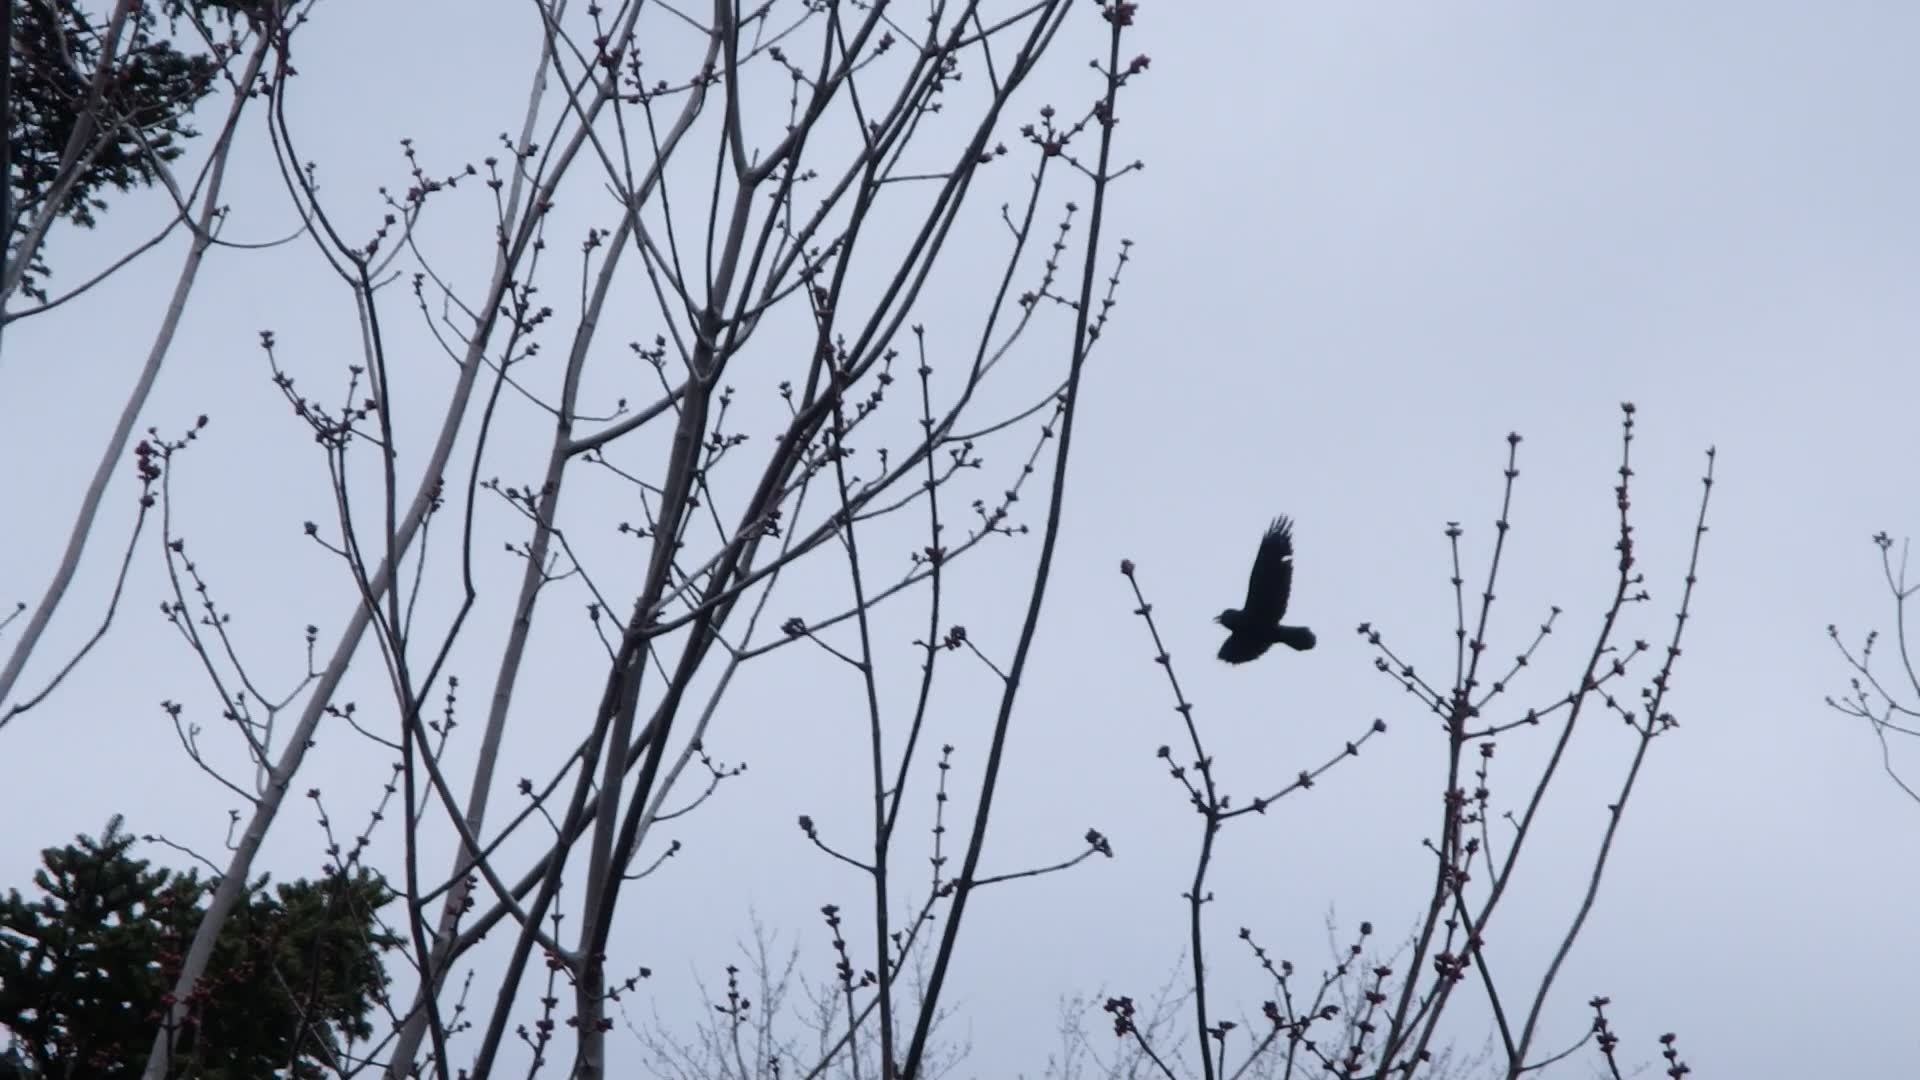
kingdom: Animalia
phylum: Chordata
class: Aves
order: Passeriformes
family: Corvidae
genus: Corvus
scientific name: Corvus corax
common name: Common raven
